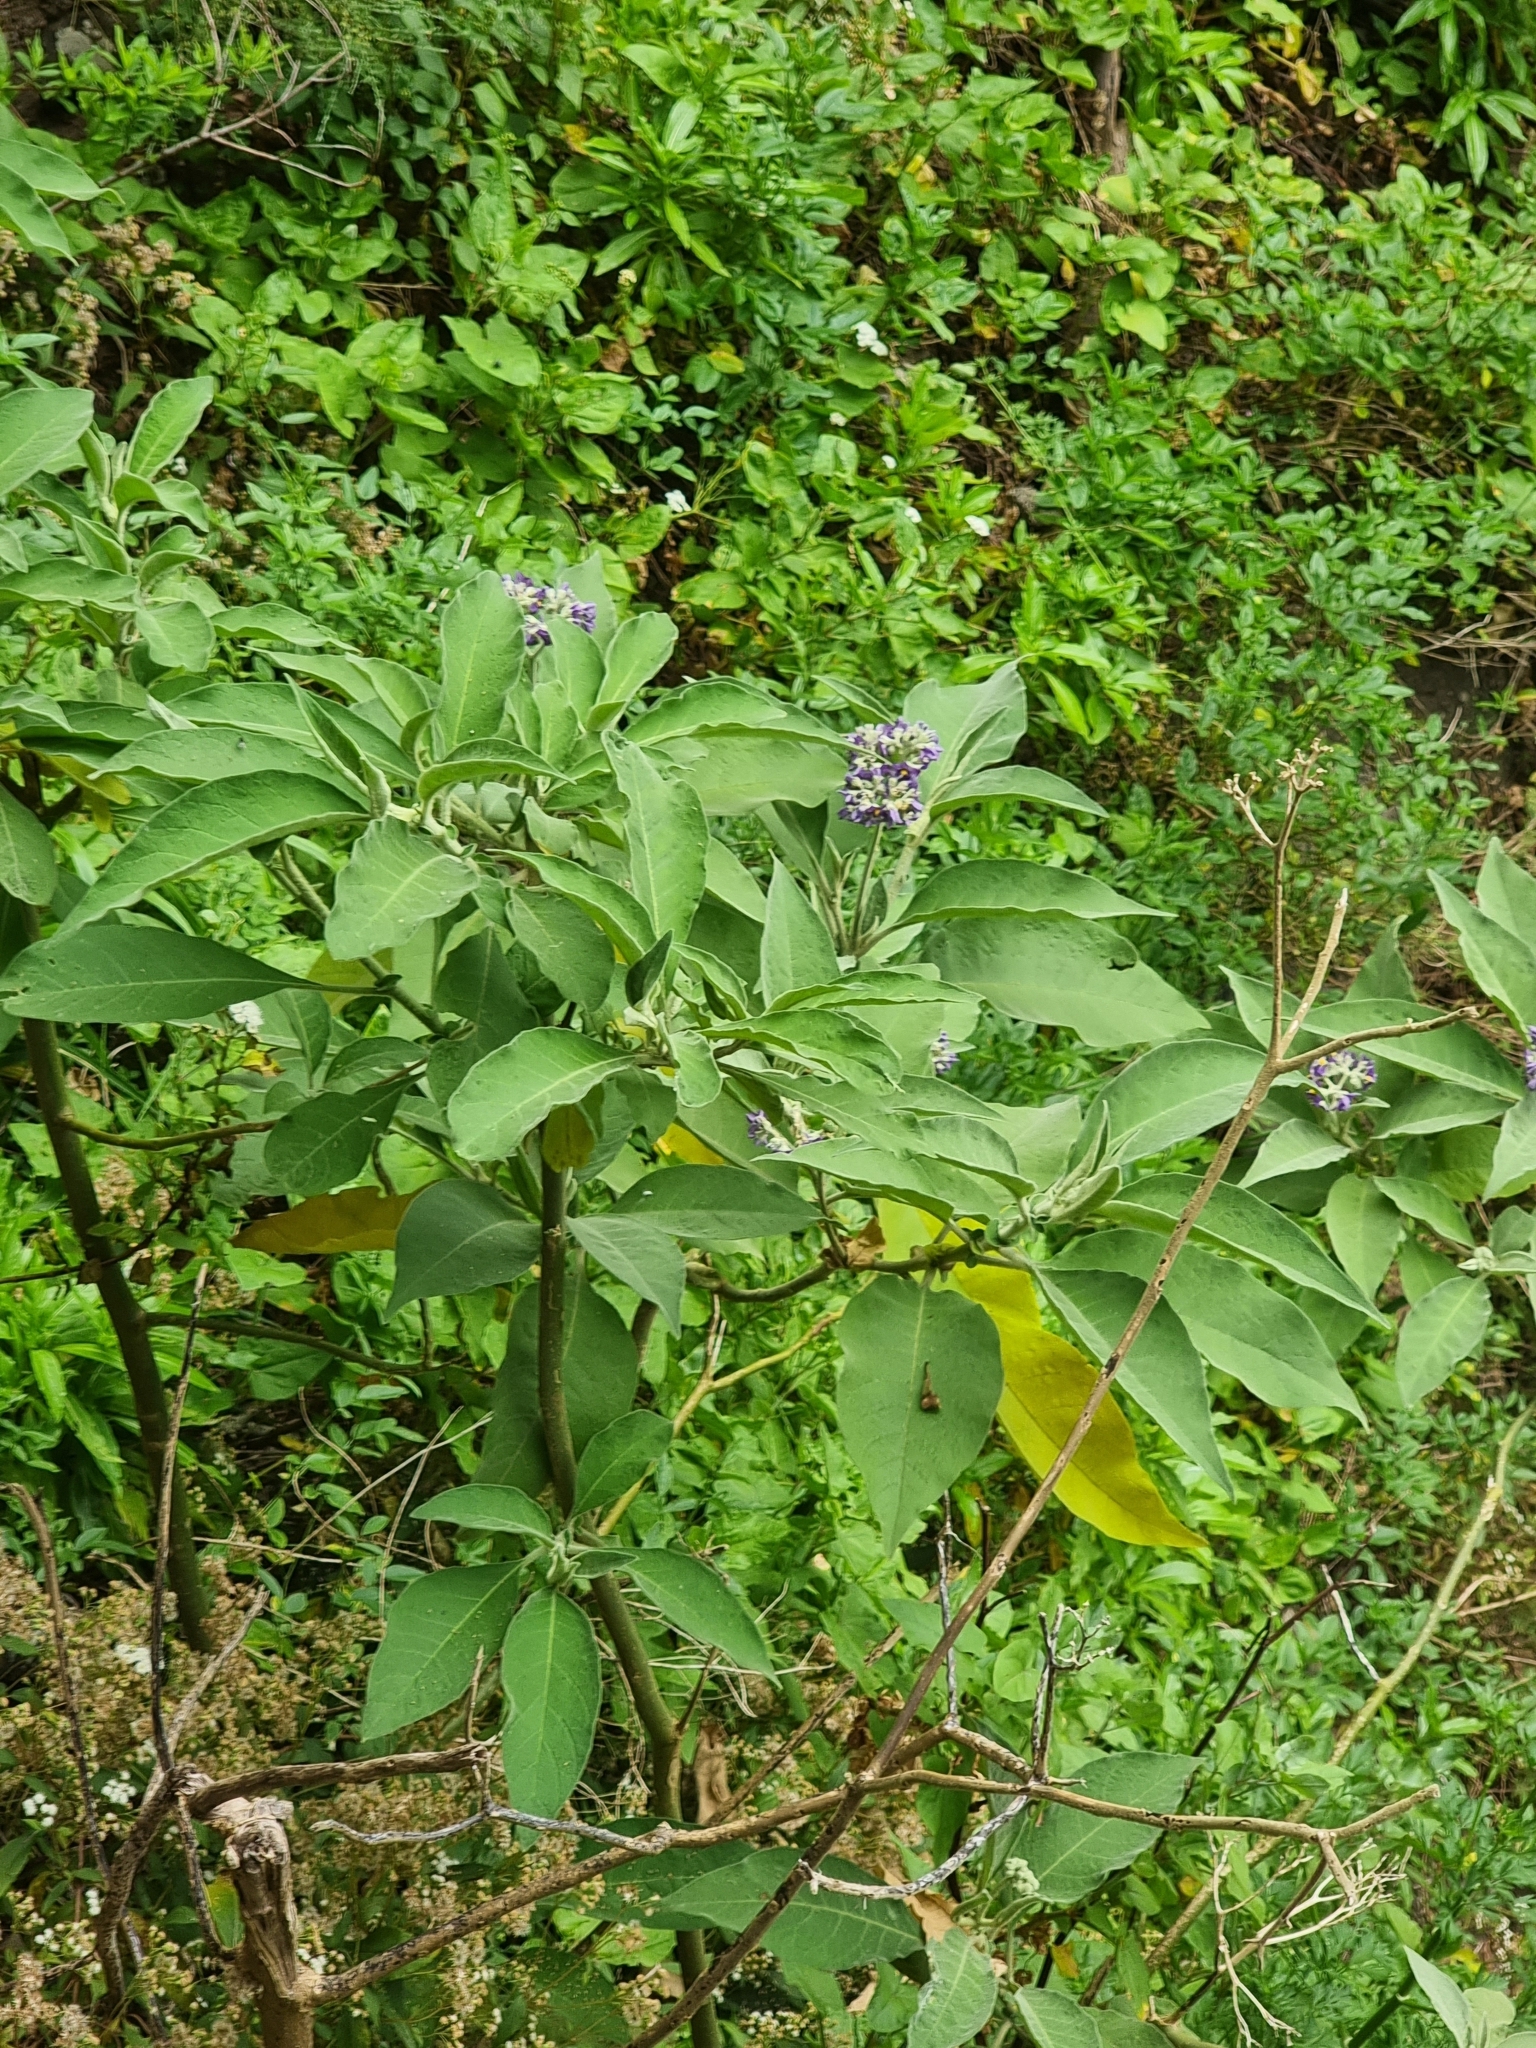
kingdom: Plantae
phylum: Tracheophyta
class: Magnoliopsida
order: Solanales
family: Solanaceae
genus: Solanum
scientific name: Solanum mauritianum
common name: Earleaf nightshade
